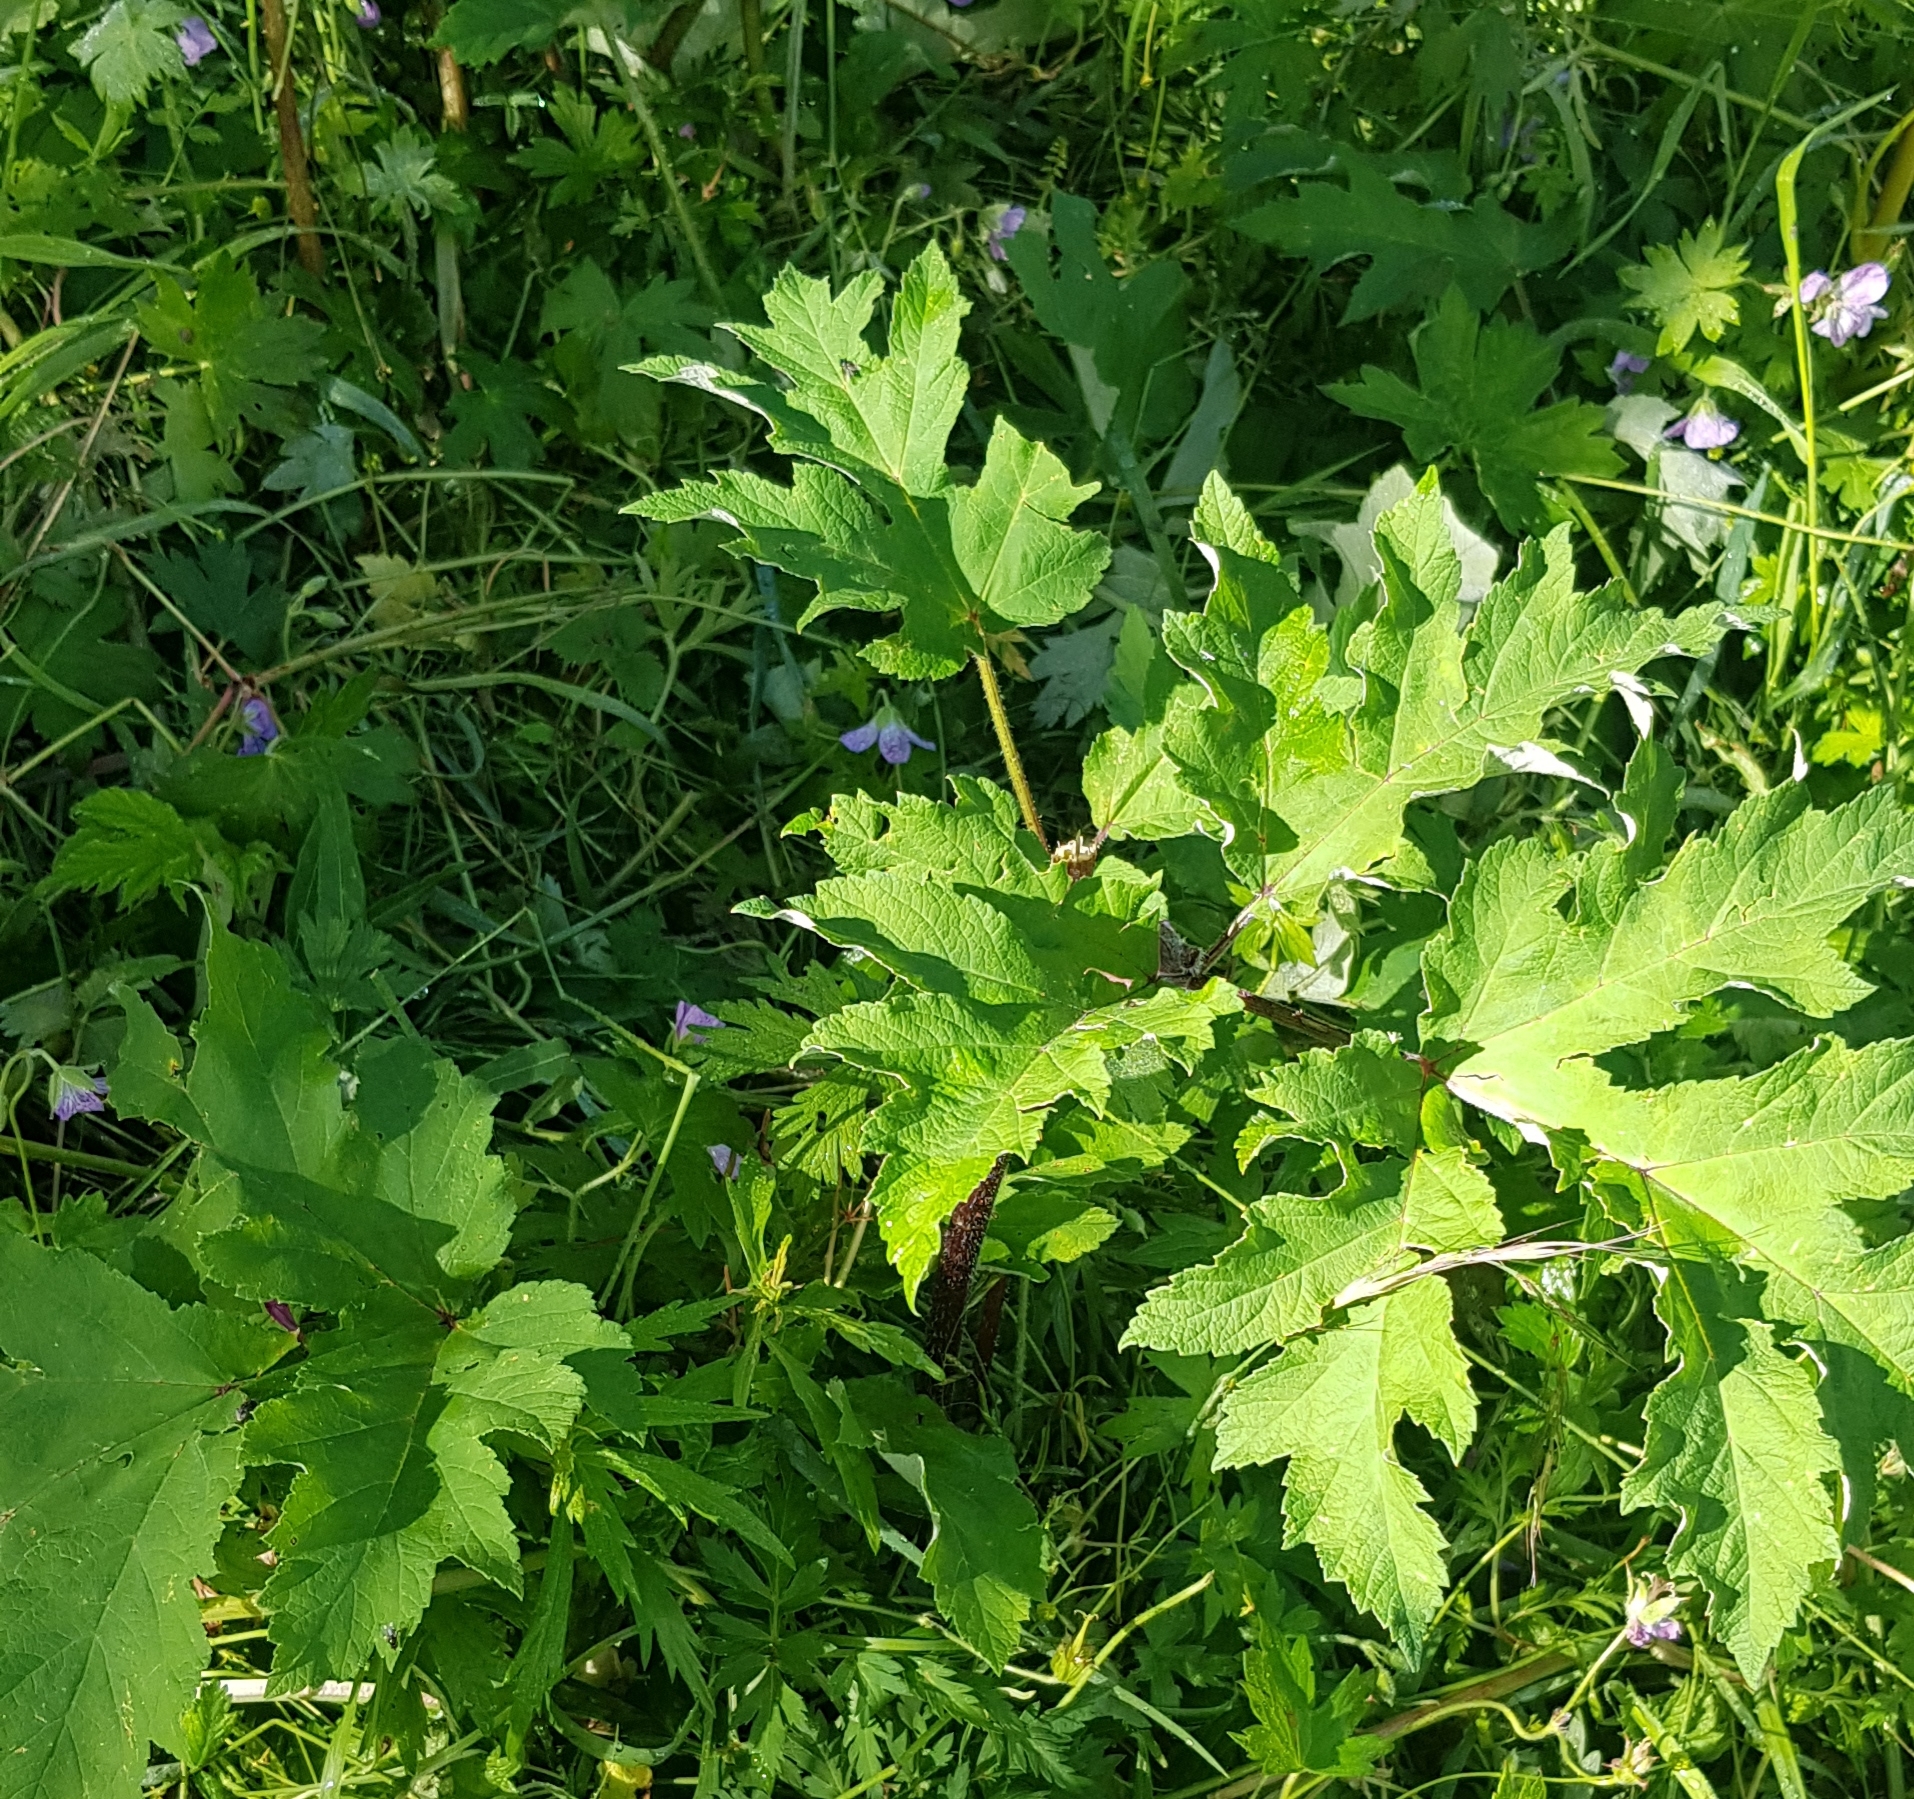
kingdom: Plantae
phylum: Tracheophyta
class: Magnoliopsida
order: Apiales
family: Apiaceae
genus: Heracleum
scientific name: Heracleum dissectum
